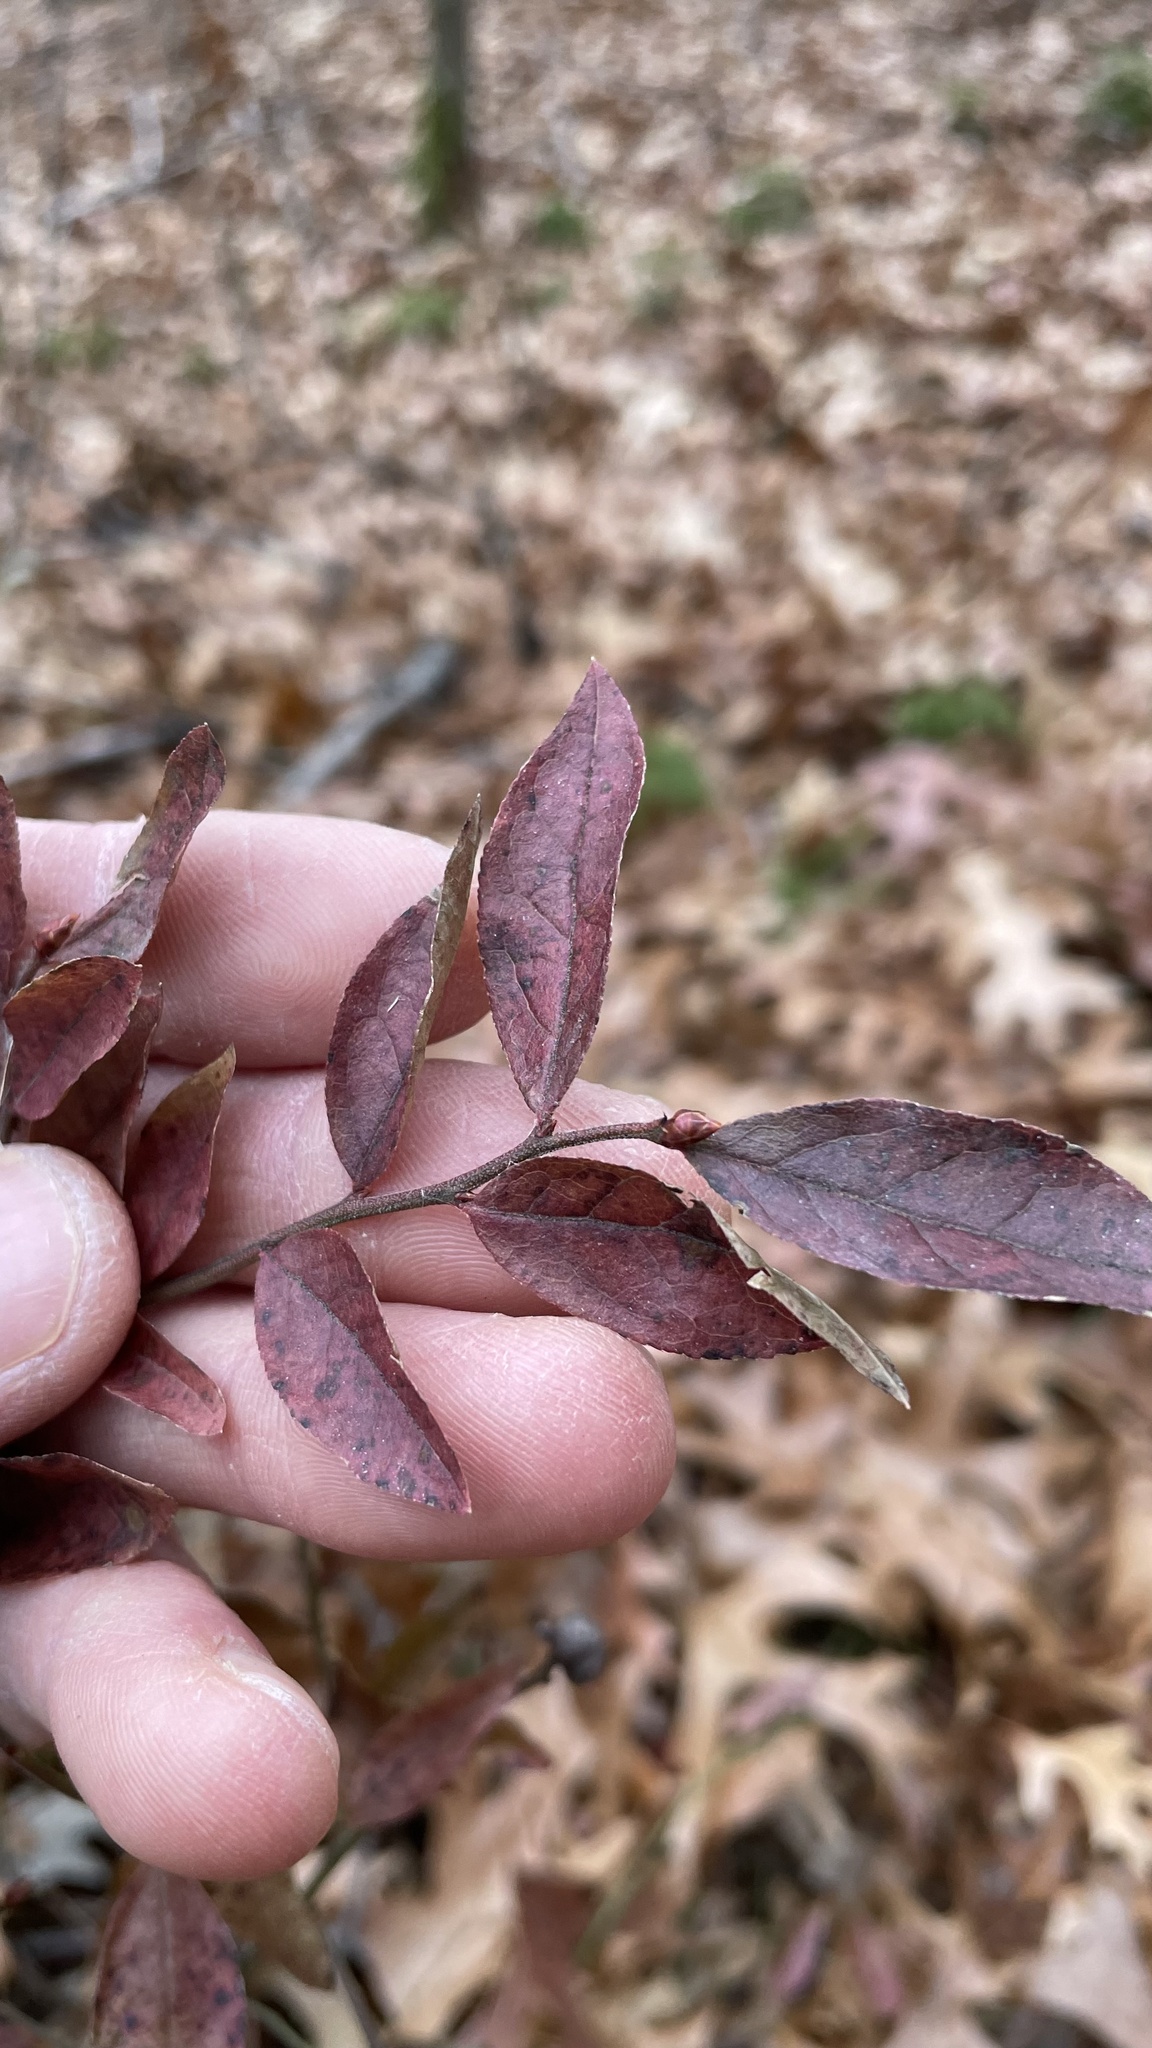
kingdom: Plantae
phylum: Tracheophyta
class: Magnoliopsida
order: Ericales
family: Ericaceae
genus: Vaccinium
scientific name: Vaccinium angustifolium
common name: Early lowbush blueberry
